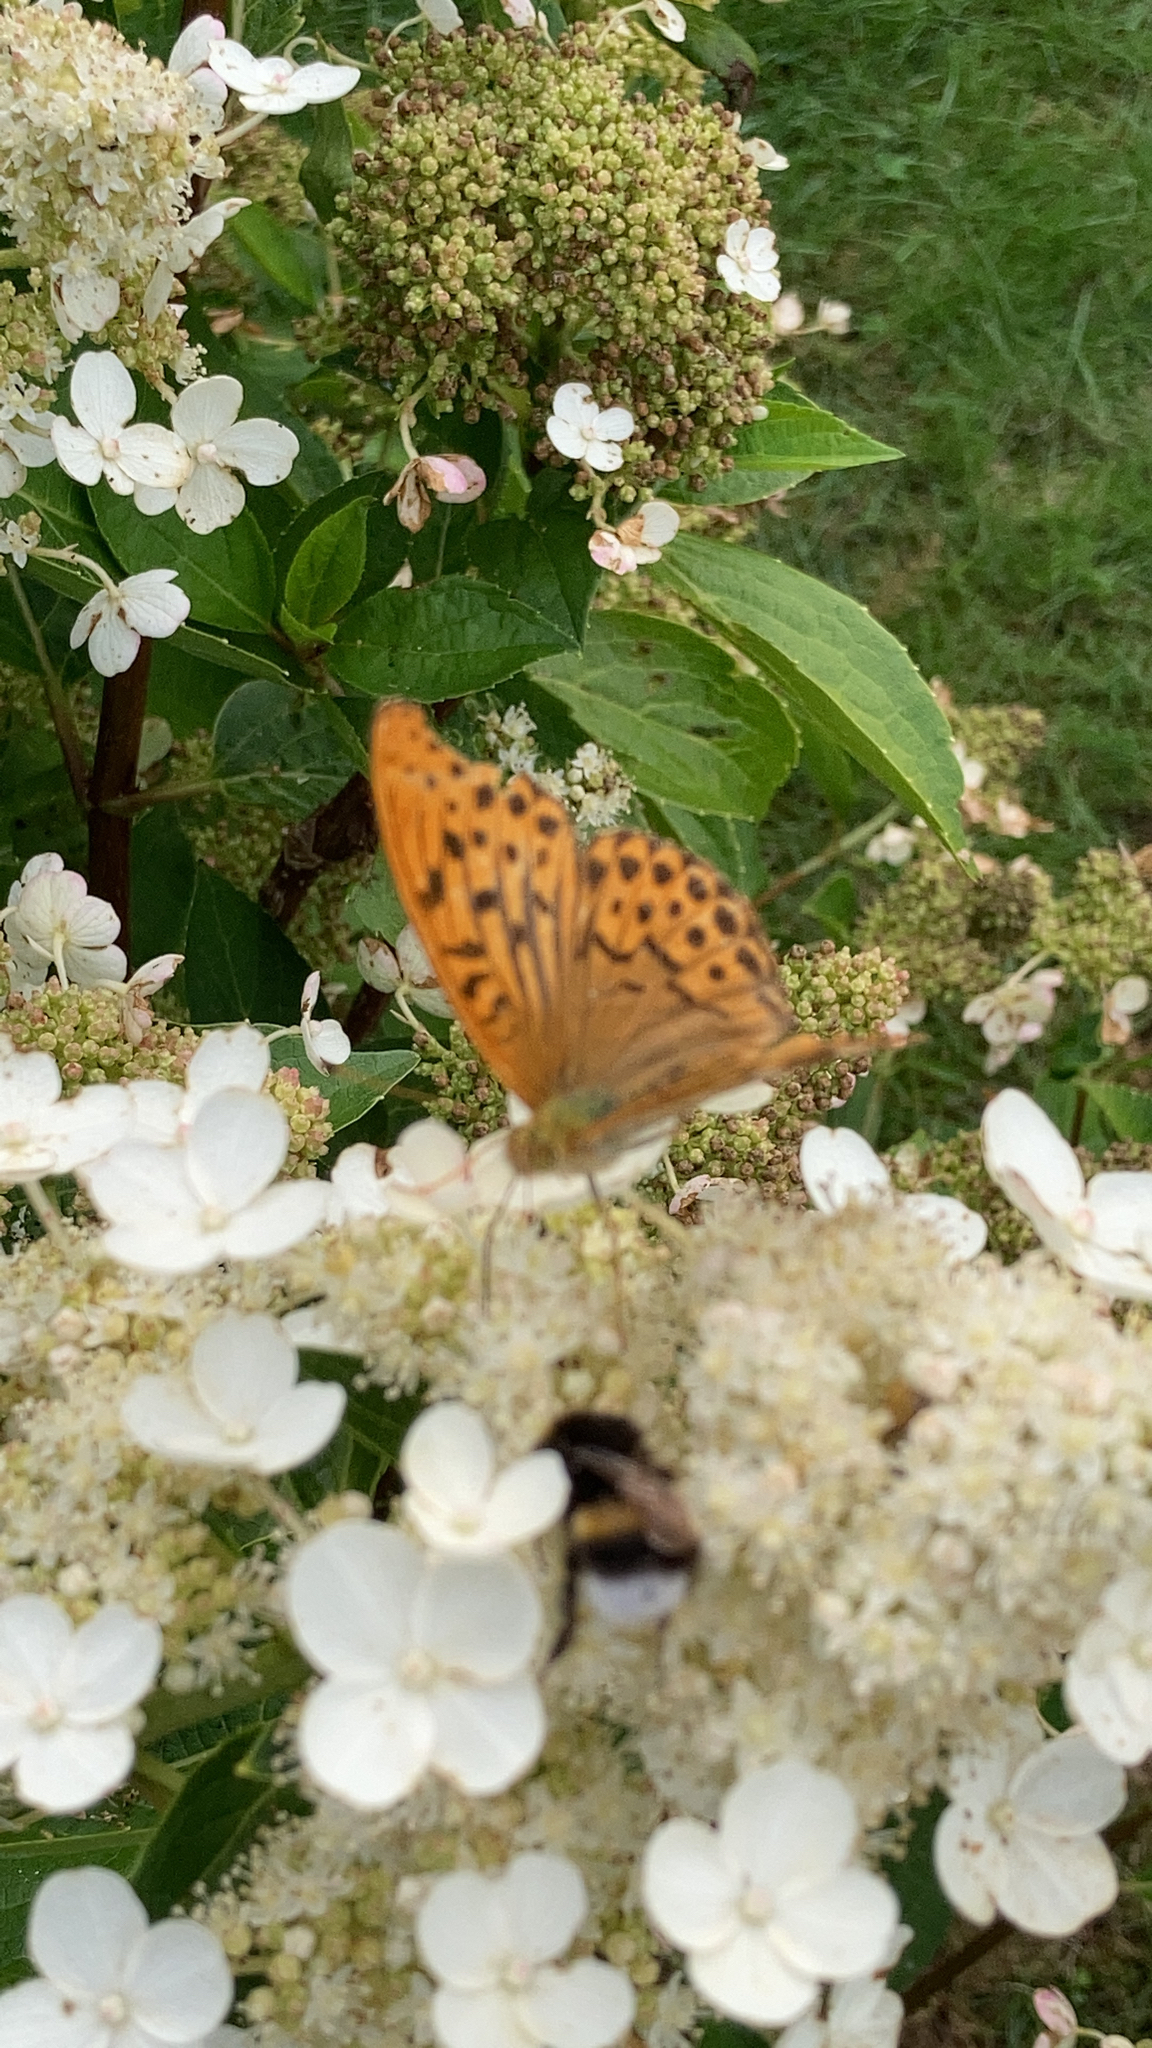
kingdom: Animalia
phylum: Arthropoda
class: Insecta
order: Lepidoptera
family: Nymphalidae
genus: Argynnis
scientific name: Argynnis paphia
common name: Silver-washed fritillary
